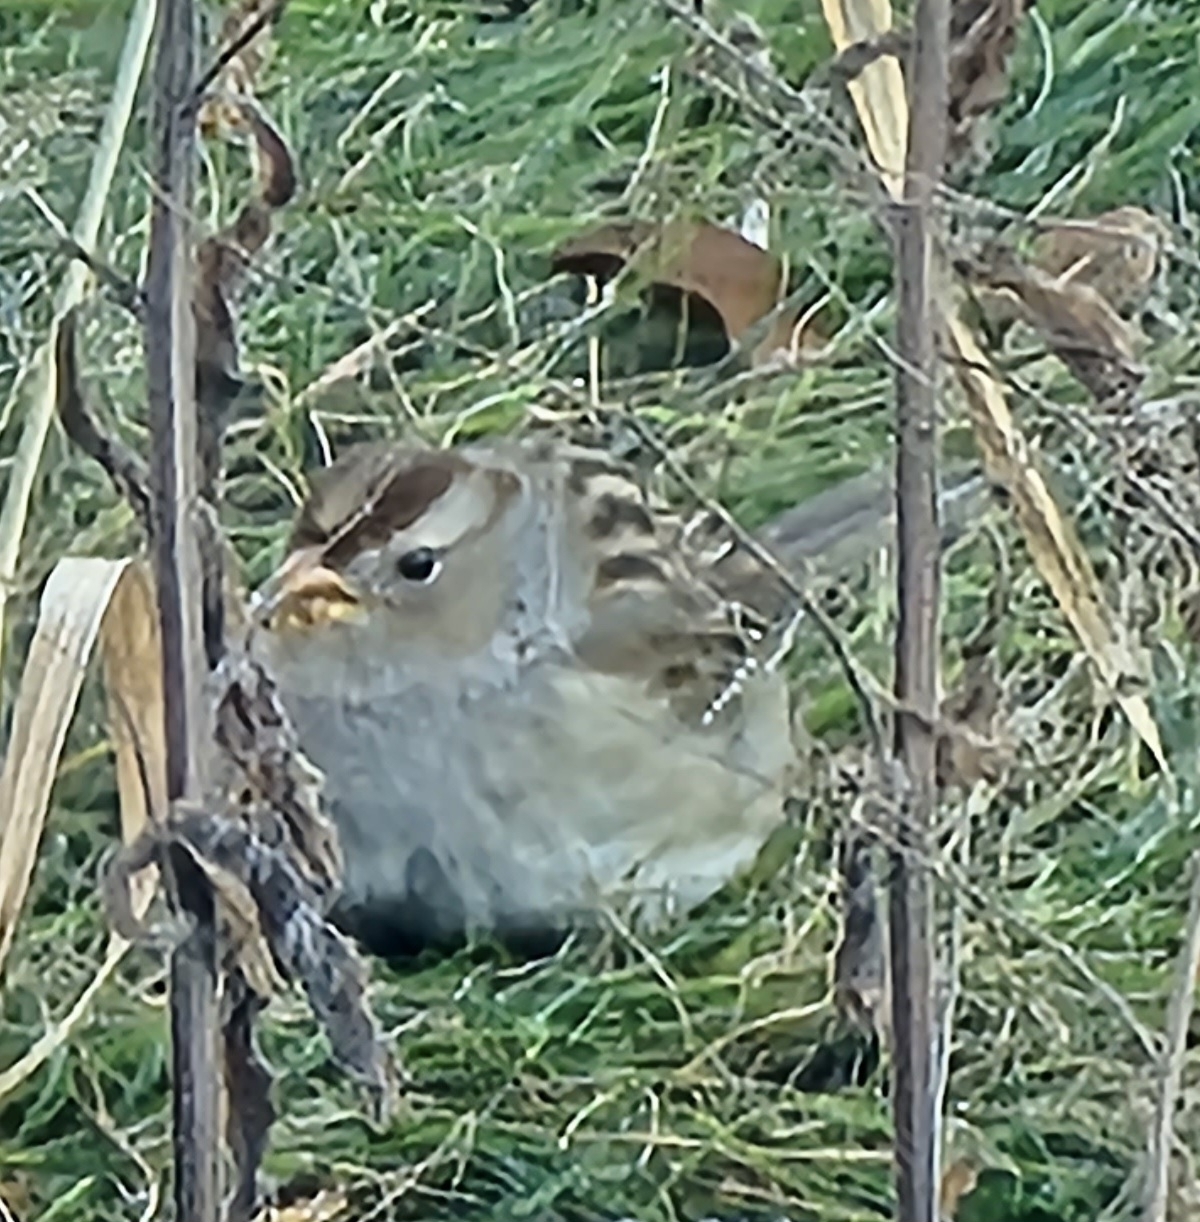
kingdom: Animalia
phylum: Chordata
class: Aves
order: Passeriformes
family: Passerellidae
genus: Zonotrichia
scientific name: Zonotrichia leucophrys
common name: White-crowned sparrow
